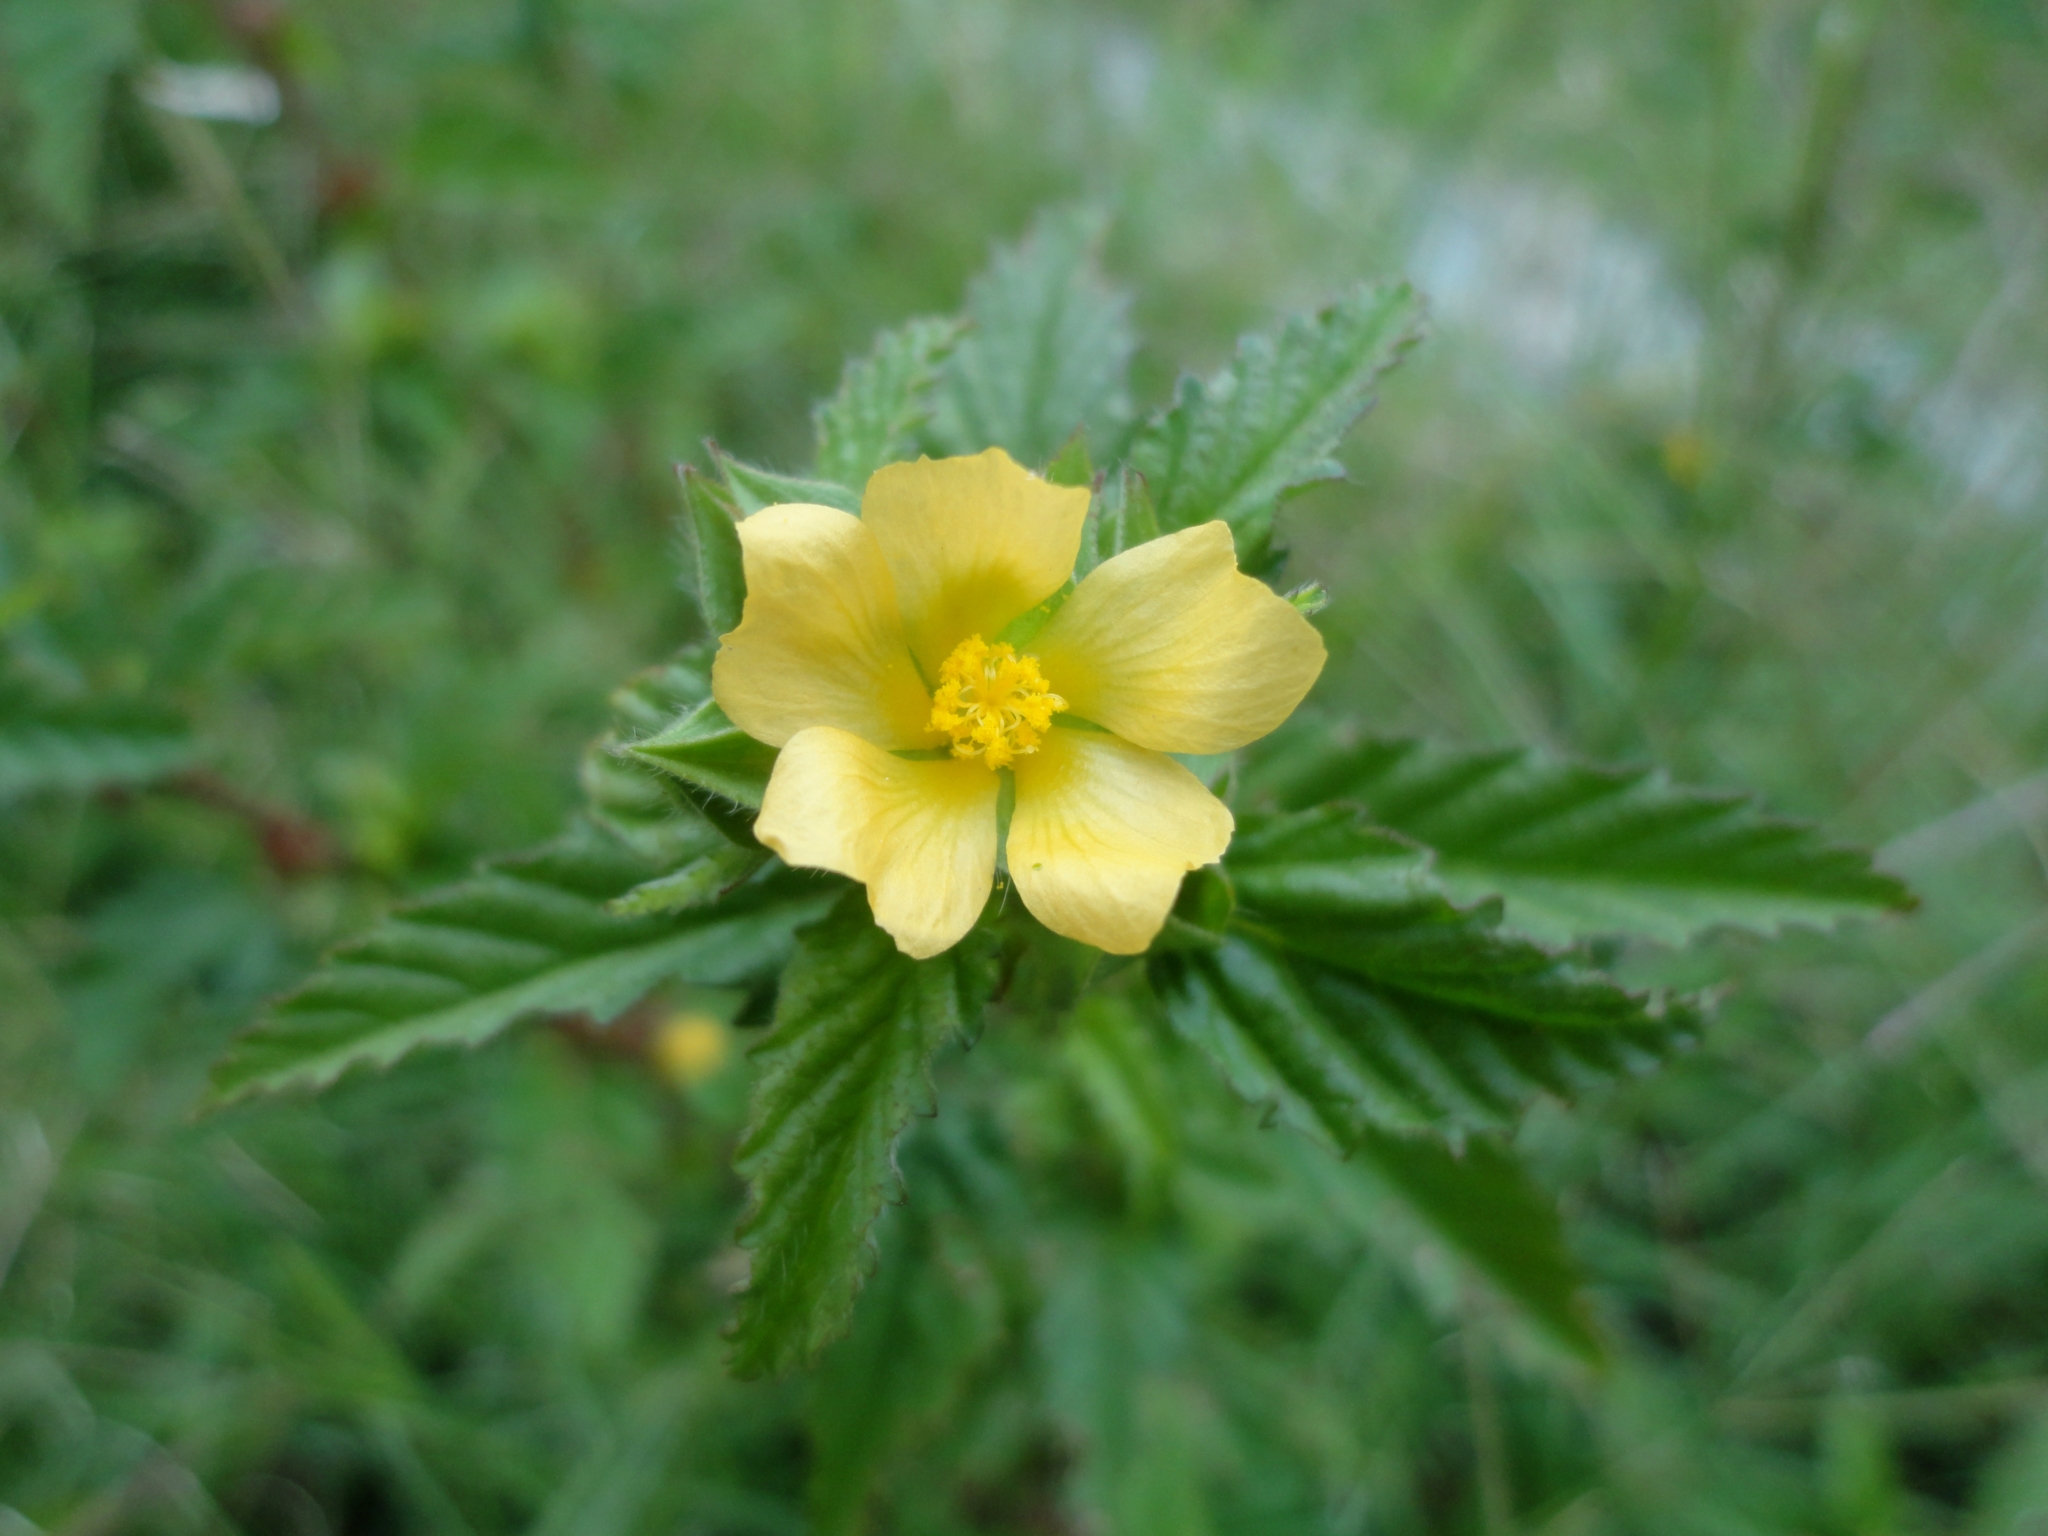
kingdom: Plantae
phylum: Tracheophyta
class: Magnoliopsida
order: Malvales
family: Malvaceae
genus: Malvastrum
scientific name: Malvastrum coromandelianum
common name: Threelobe false mallow
